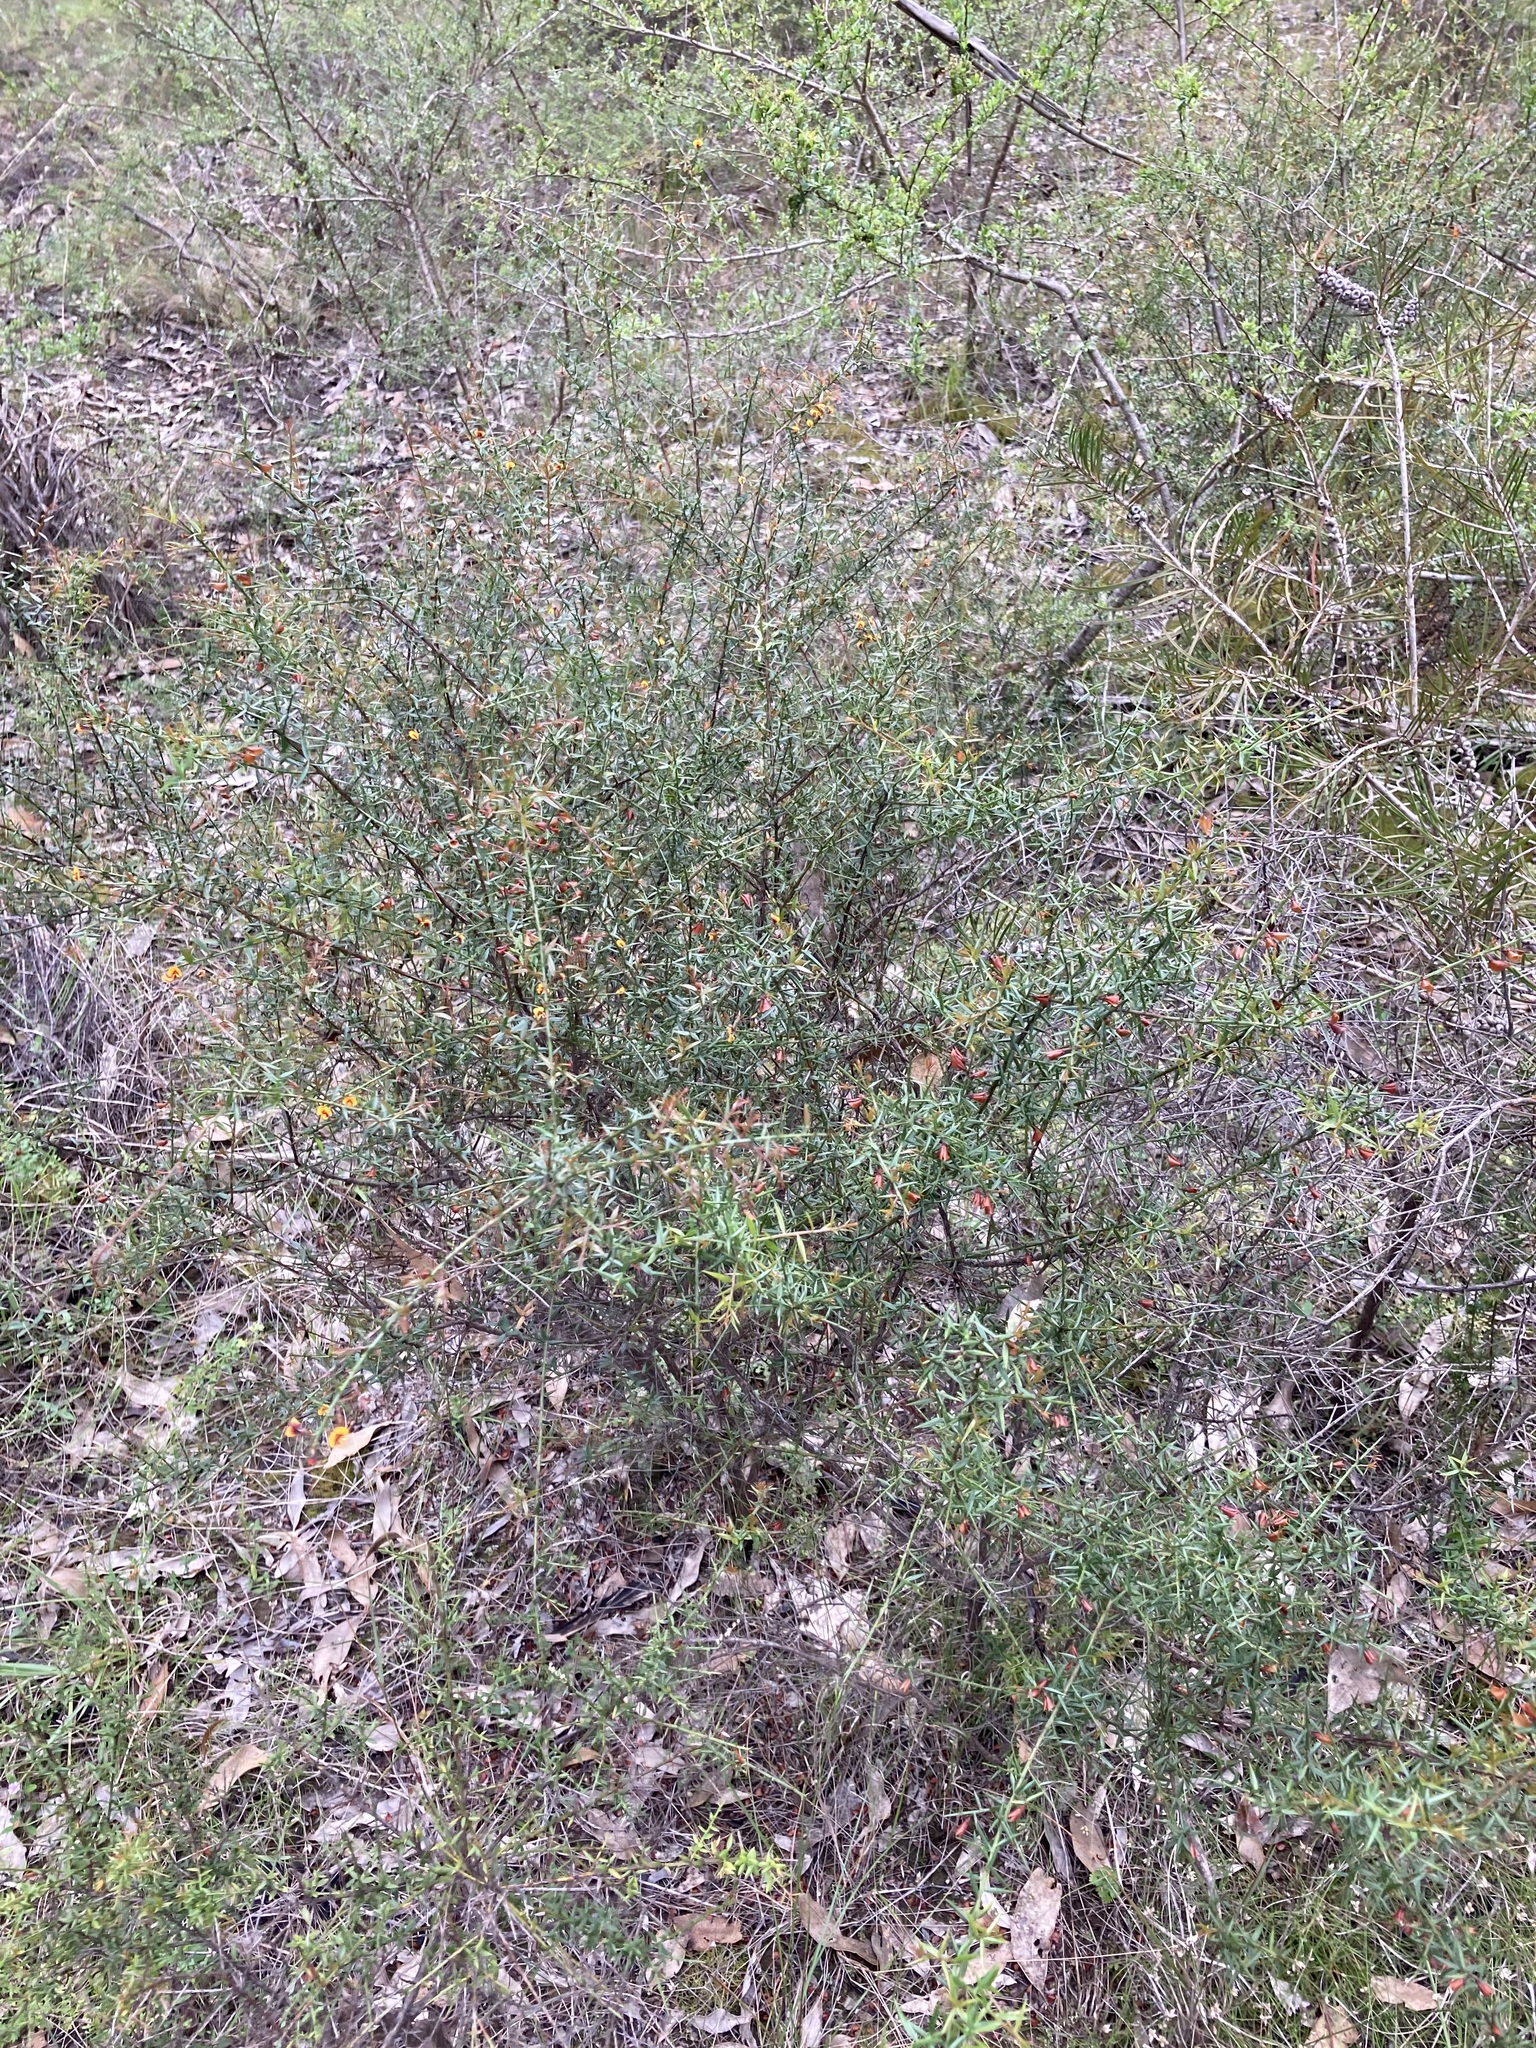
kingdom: Plantae
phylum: Tracheophyta
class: Magnoliopsida
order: Fabales
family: Fabaceae
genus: Daviesia
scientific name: Daviesia ulicifolia
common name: Gorse bitter-pea
